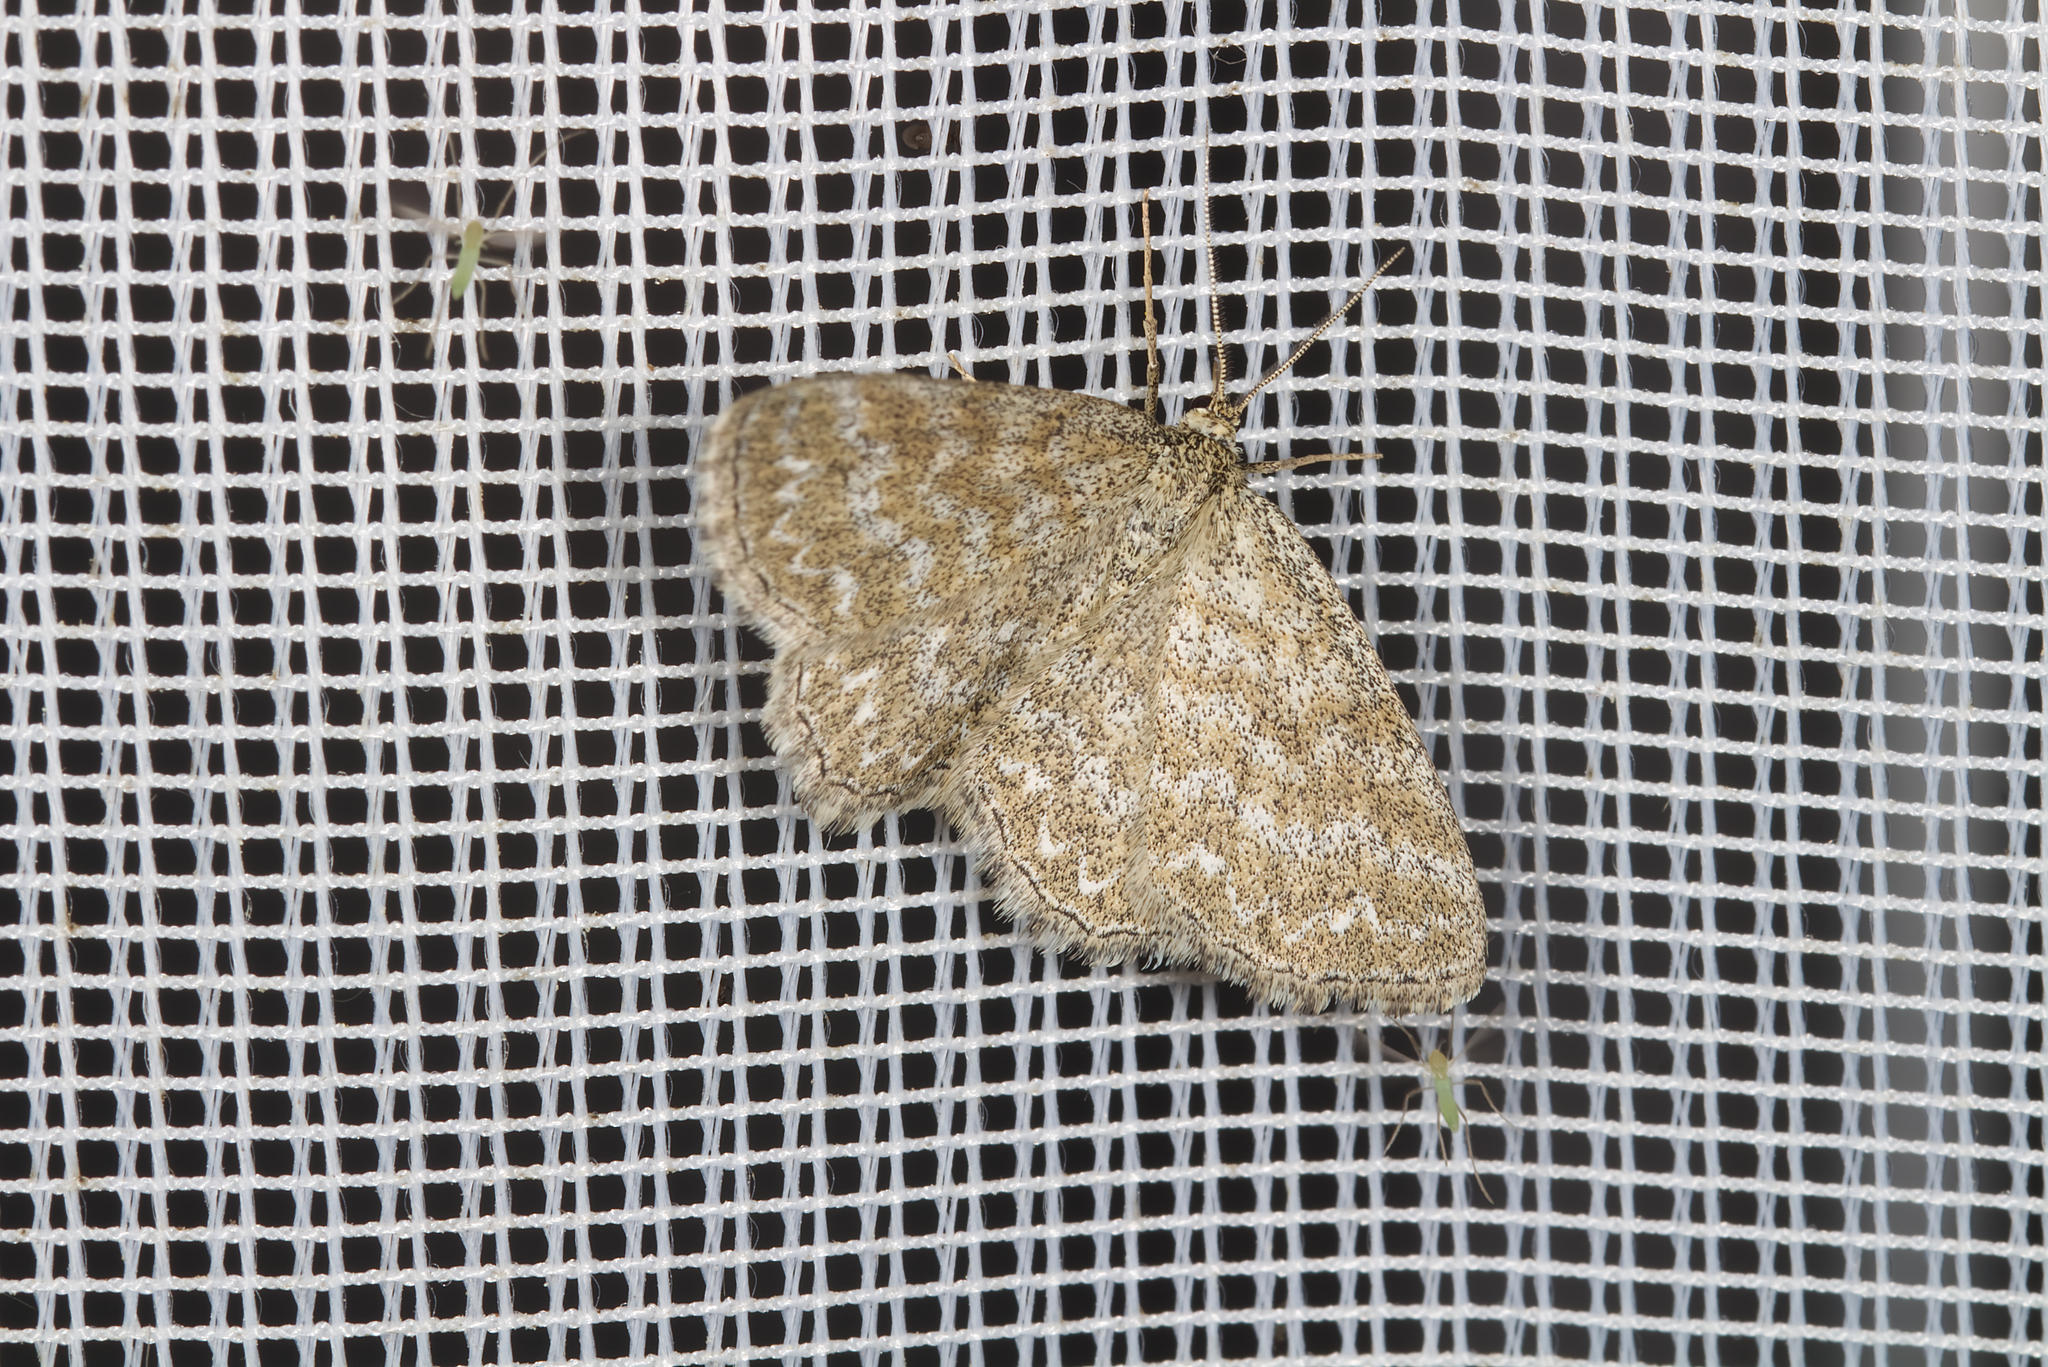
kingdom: Animalia
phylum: Arthropoda
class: Insecta
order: Lepidoptera
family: Geometridae
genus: Scopula
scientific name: Scopula immorata
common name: Lewes wave
